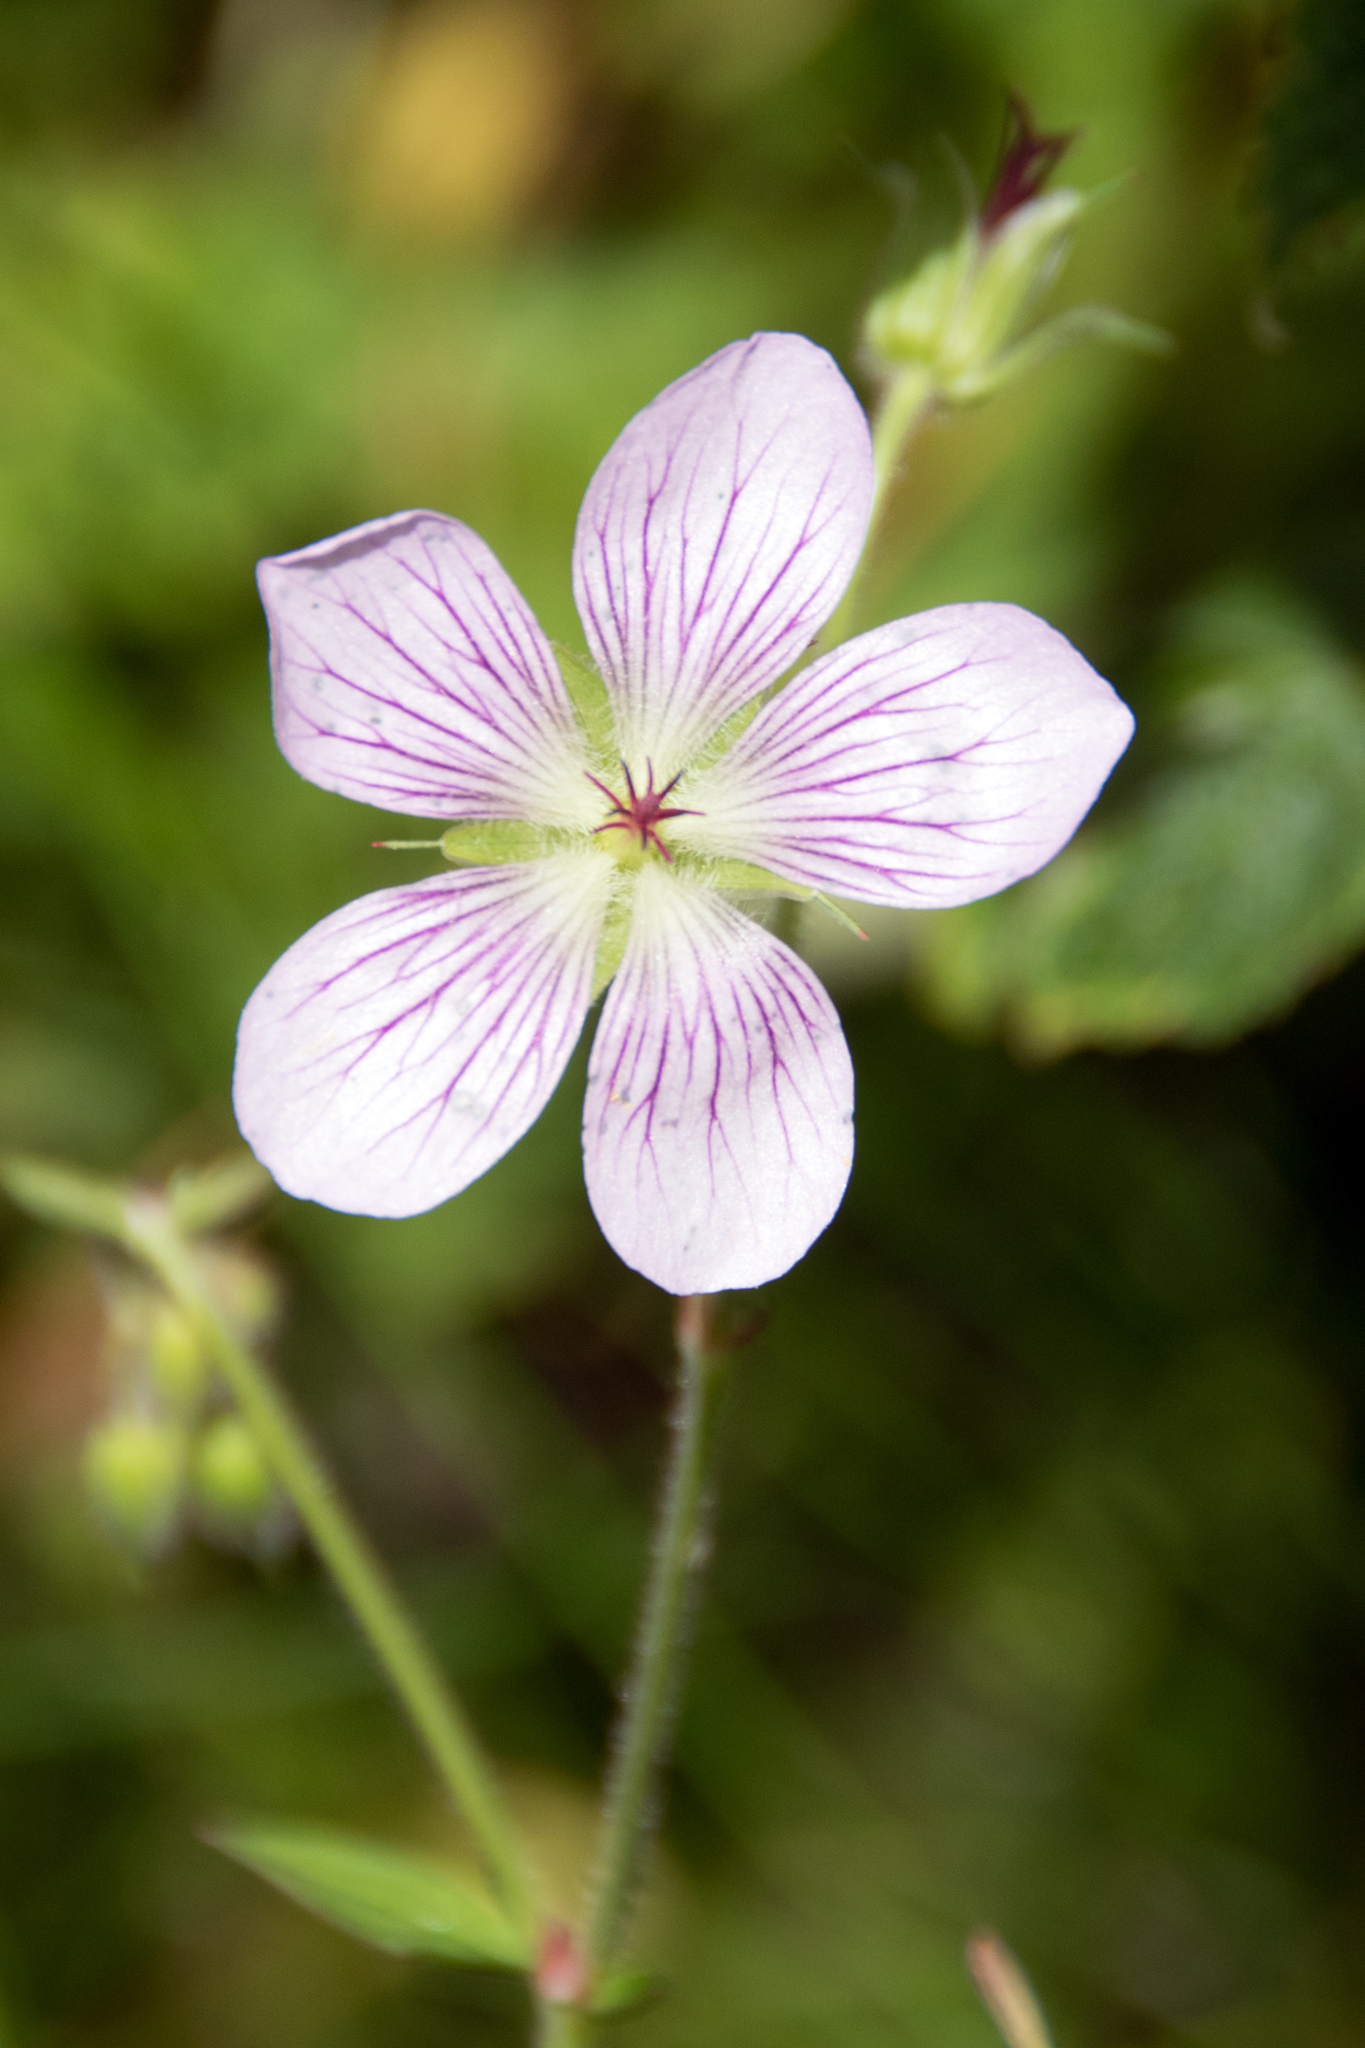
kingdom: Plantae
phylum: Tracheophyta
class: Magnoliopsida
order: Geraniales
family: Geraniaceae
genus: Geranium
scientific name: Geranium richardsonii
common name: Richardson's crane's-bill
